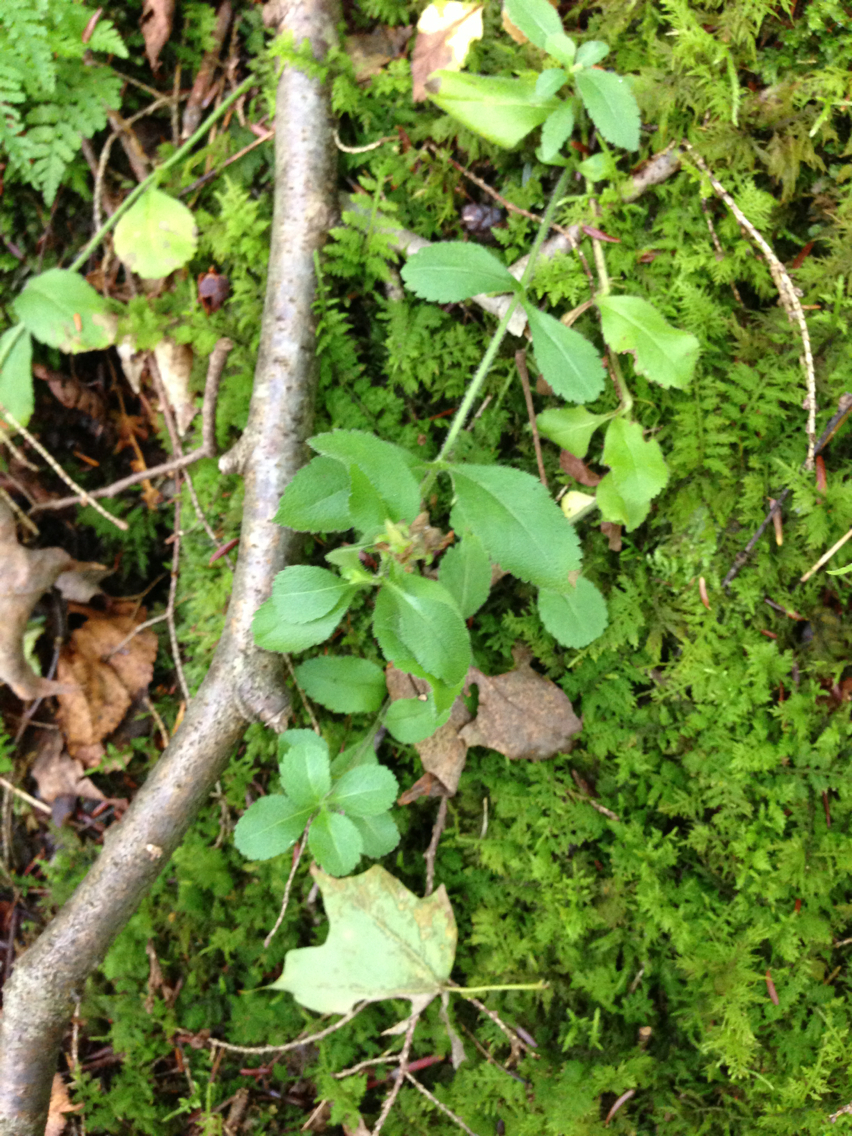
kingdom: Plantae
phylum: Tracheophyta
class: Magnoliopsida
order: Lamiales
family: Plantaginaceae
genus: Veronica
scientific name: Veronica officinalis
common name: Common speedwell
